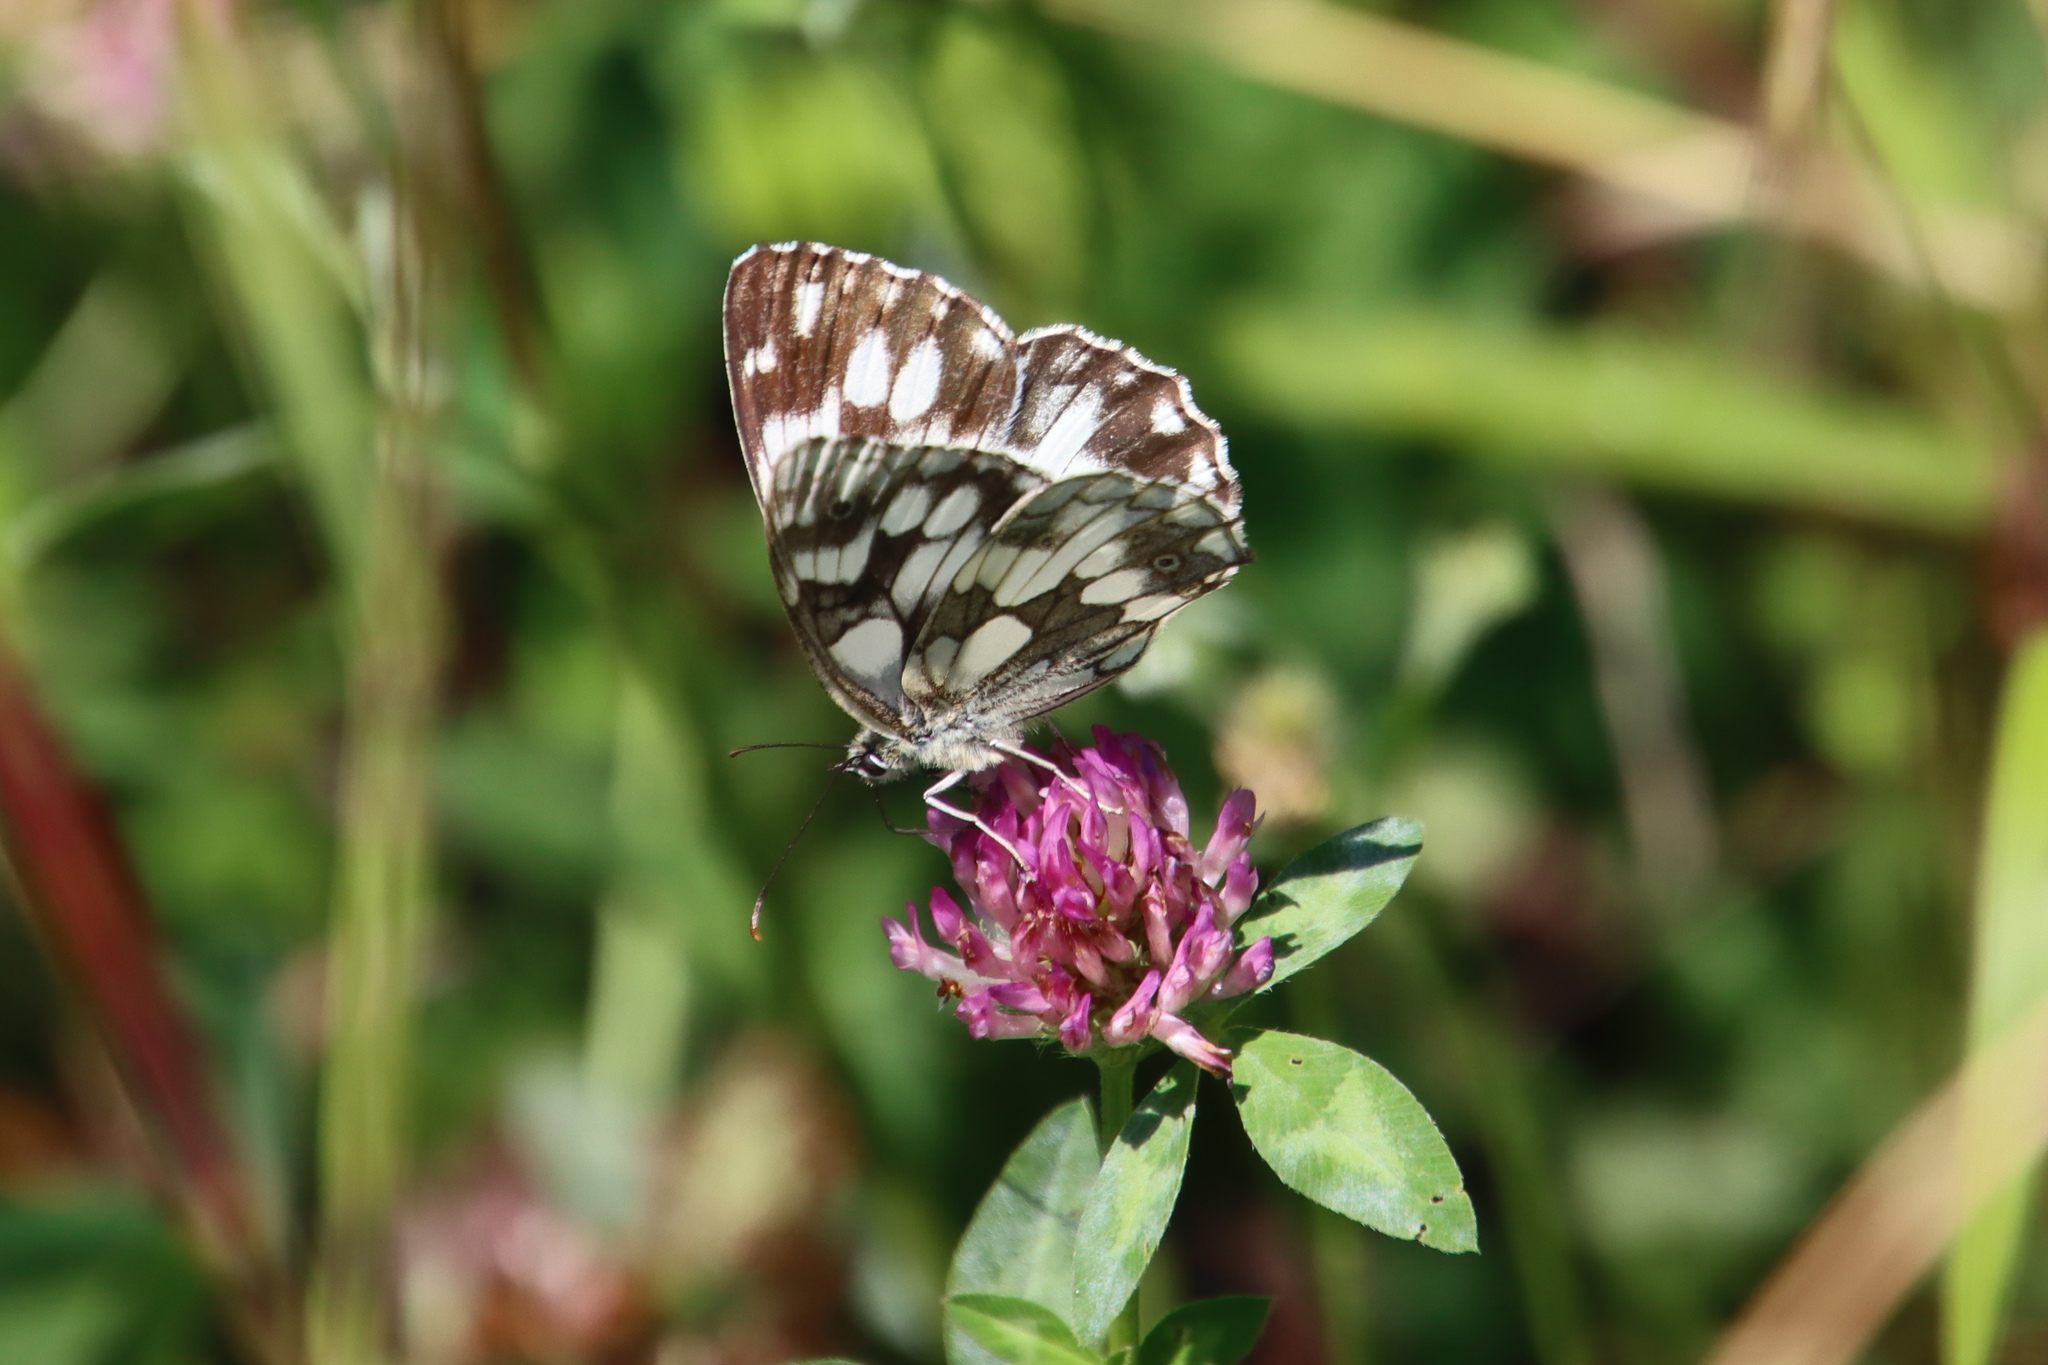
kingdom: Animalia
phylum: Arthropoda
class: Insecta
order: Lepidoptera
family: Nymphalidae
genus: Melanargia
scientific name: Melanargia galathea
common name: Marbled white
